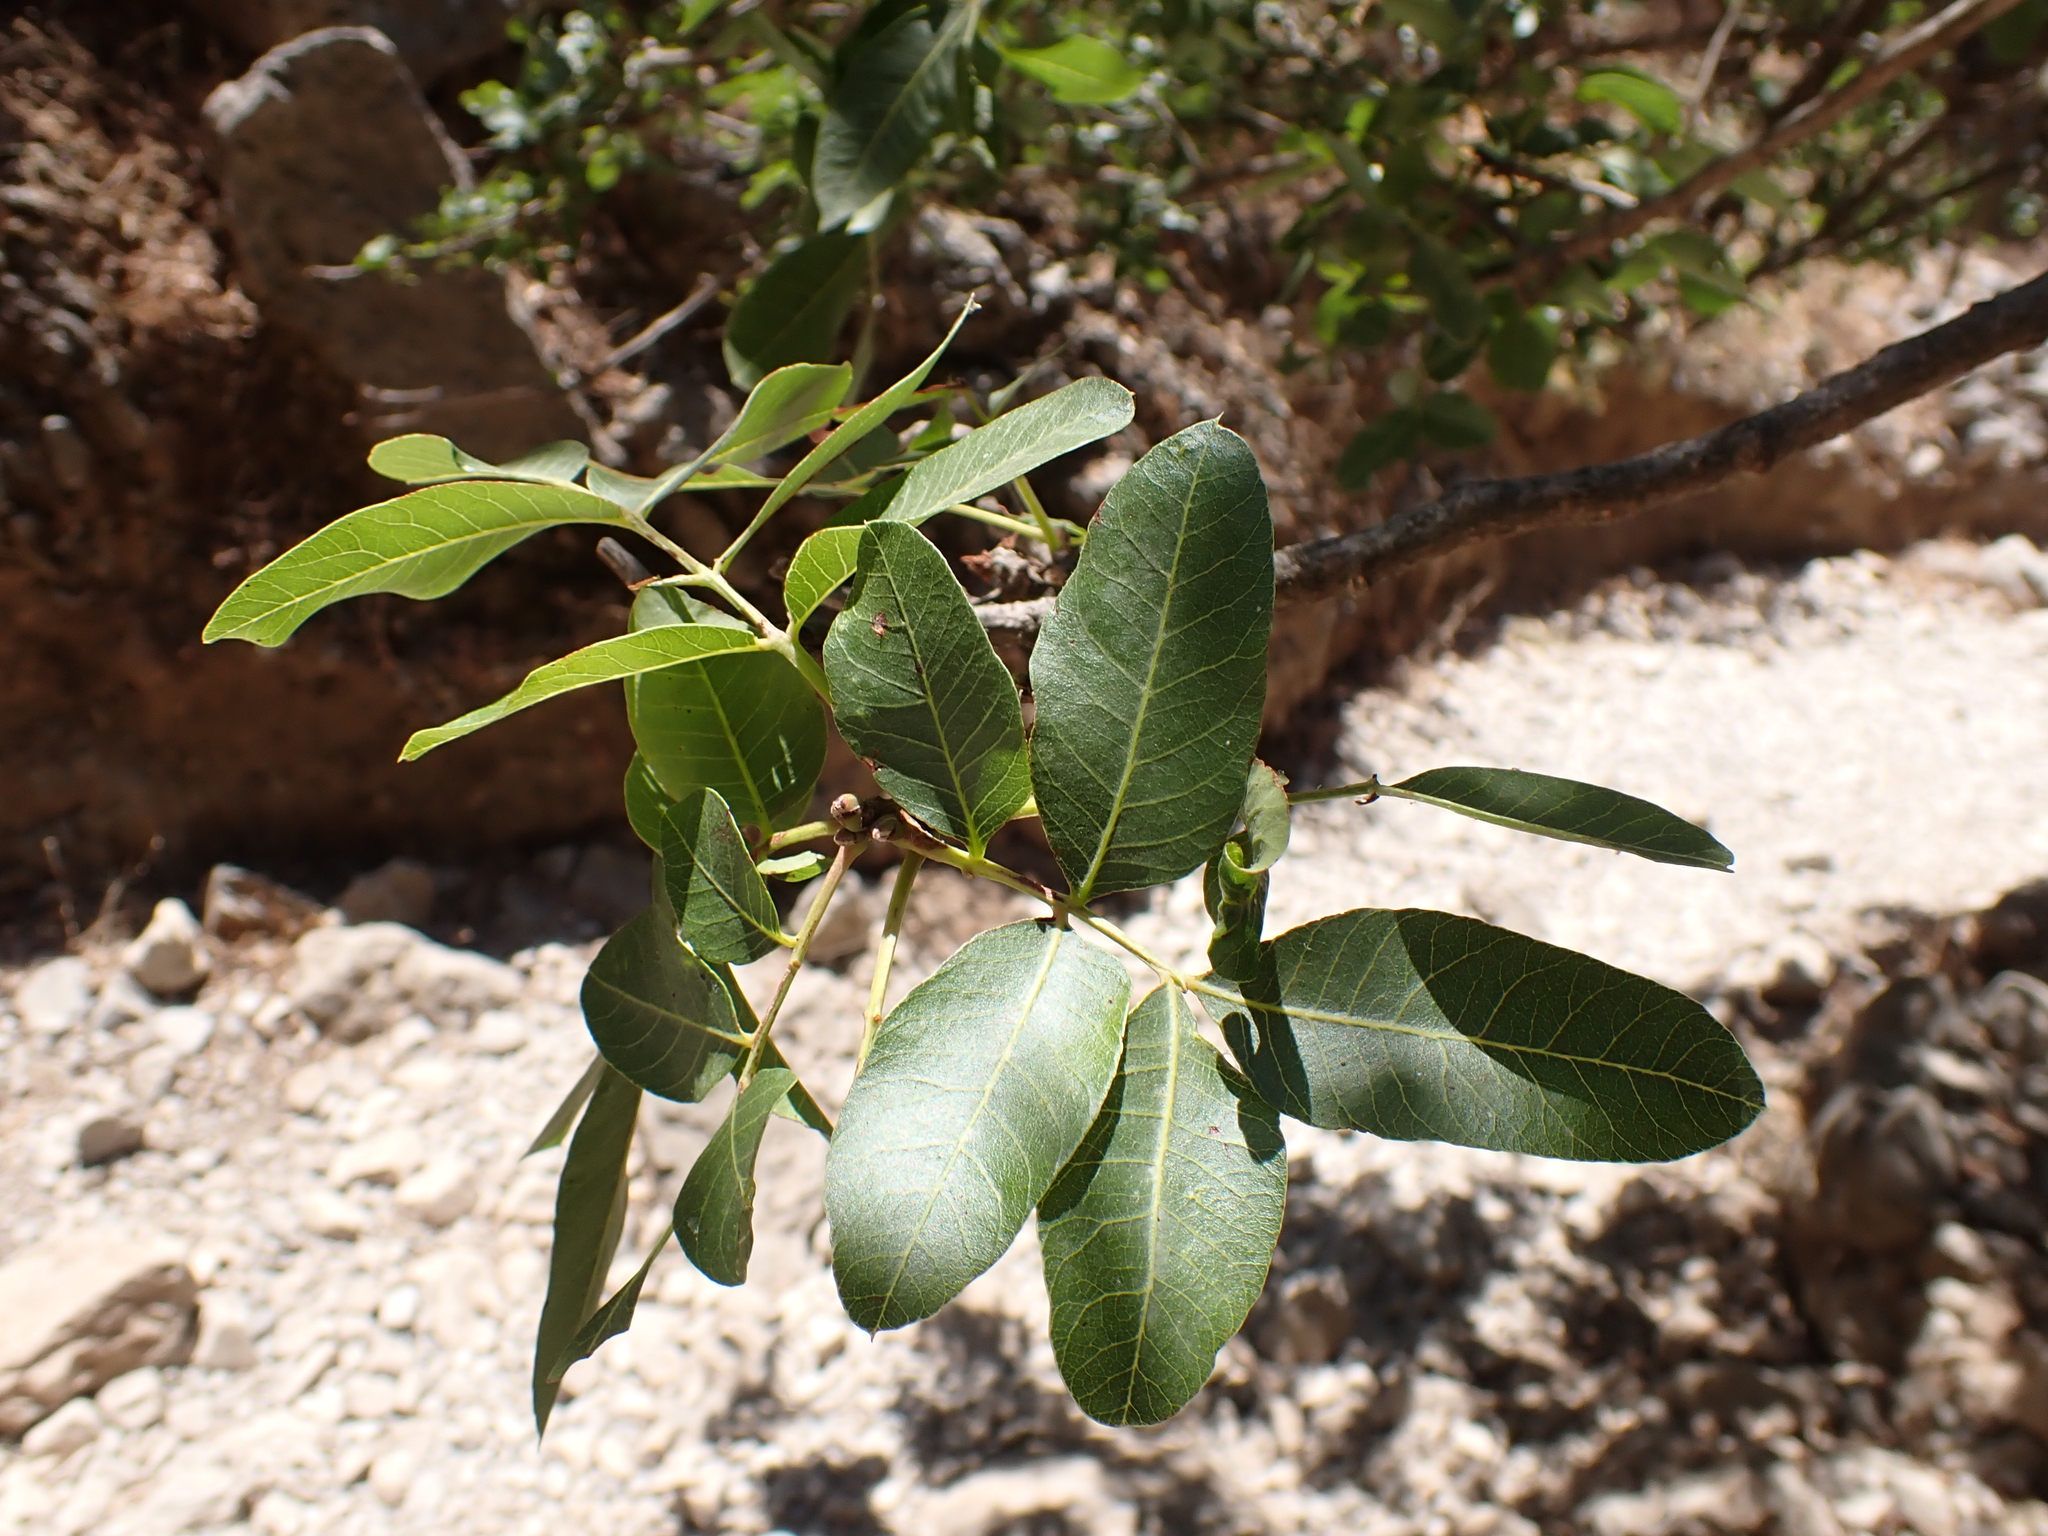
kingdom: Plantae
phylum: Tracheophyta
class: Magnoliopsida
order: Sapindales
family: Anacardiaceae
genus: Pistacia
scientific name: Pistacia terebinthus
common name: Terebinth
